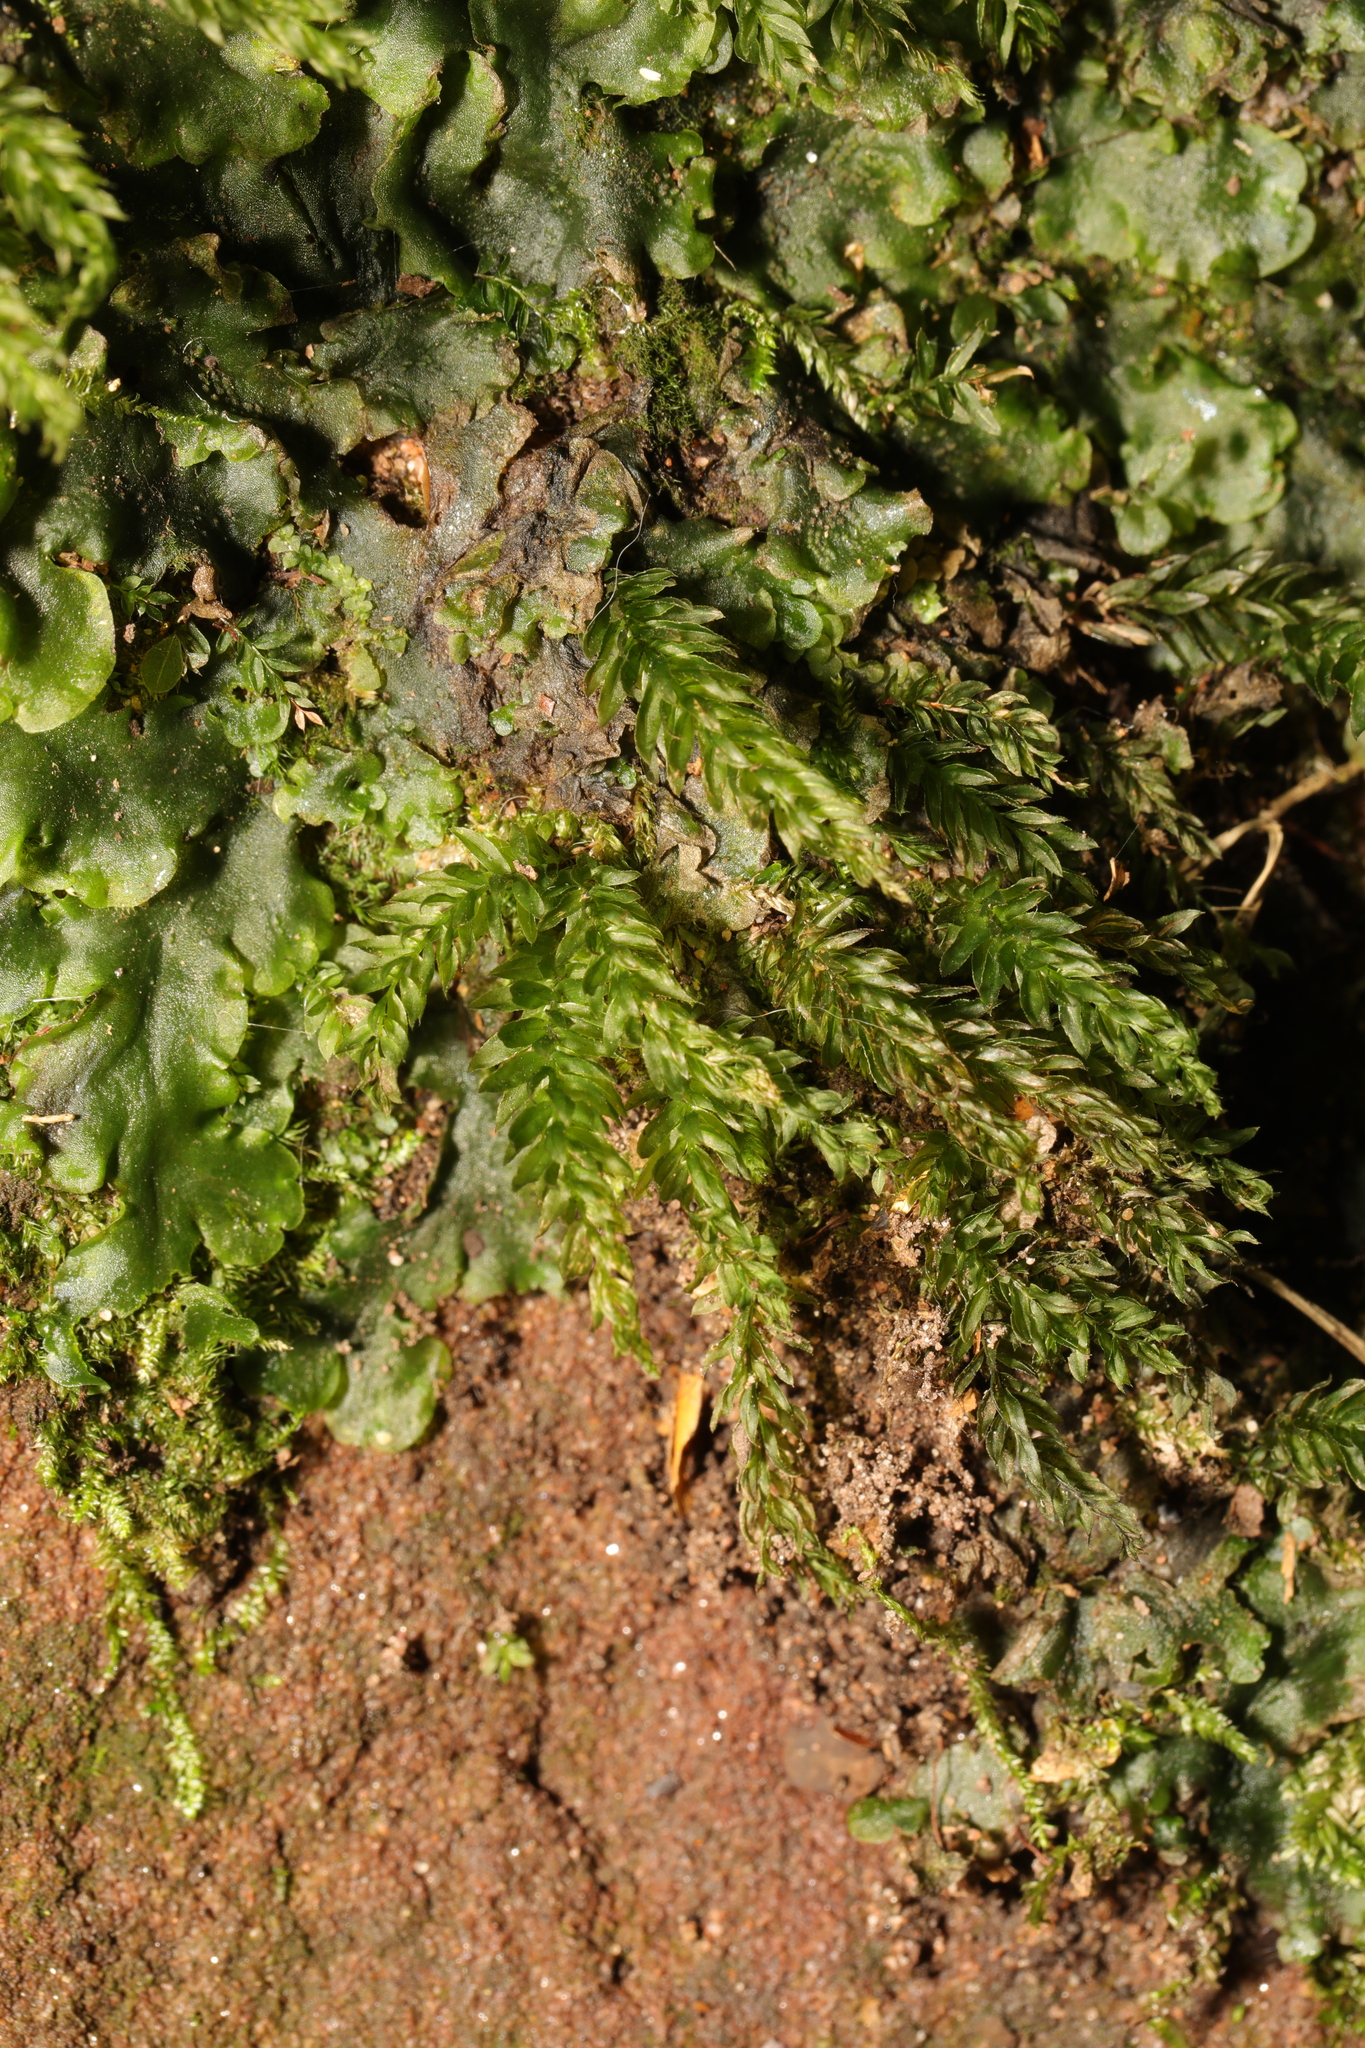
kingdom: Plantae
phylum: Bryophyta
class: Bryopsida
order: Dicranales
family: Fissidentaceae
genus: Fissidens
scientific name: Fissidens taxifolius
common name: Yew-leaved pocket moss
